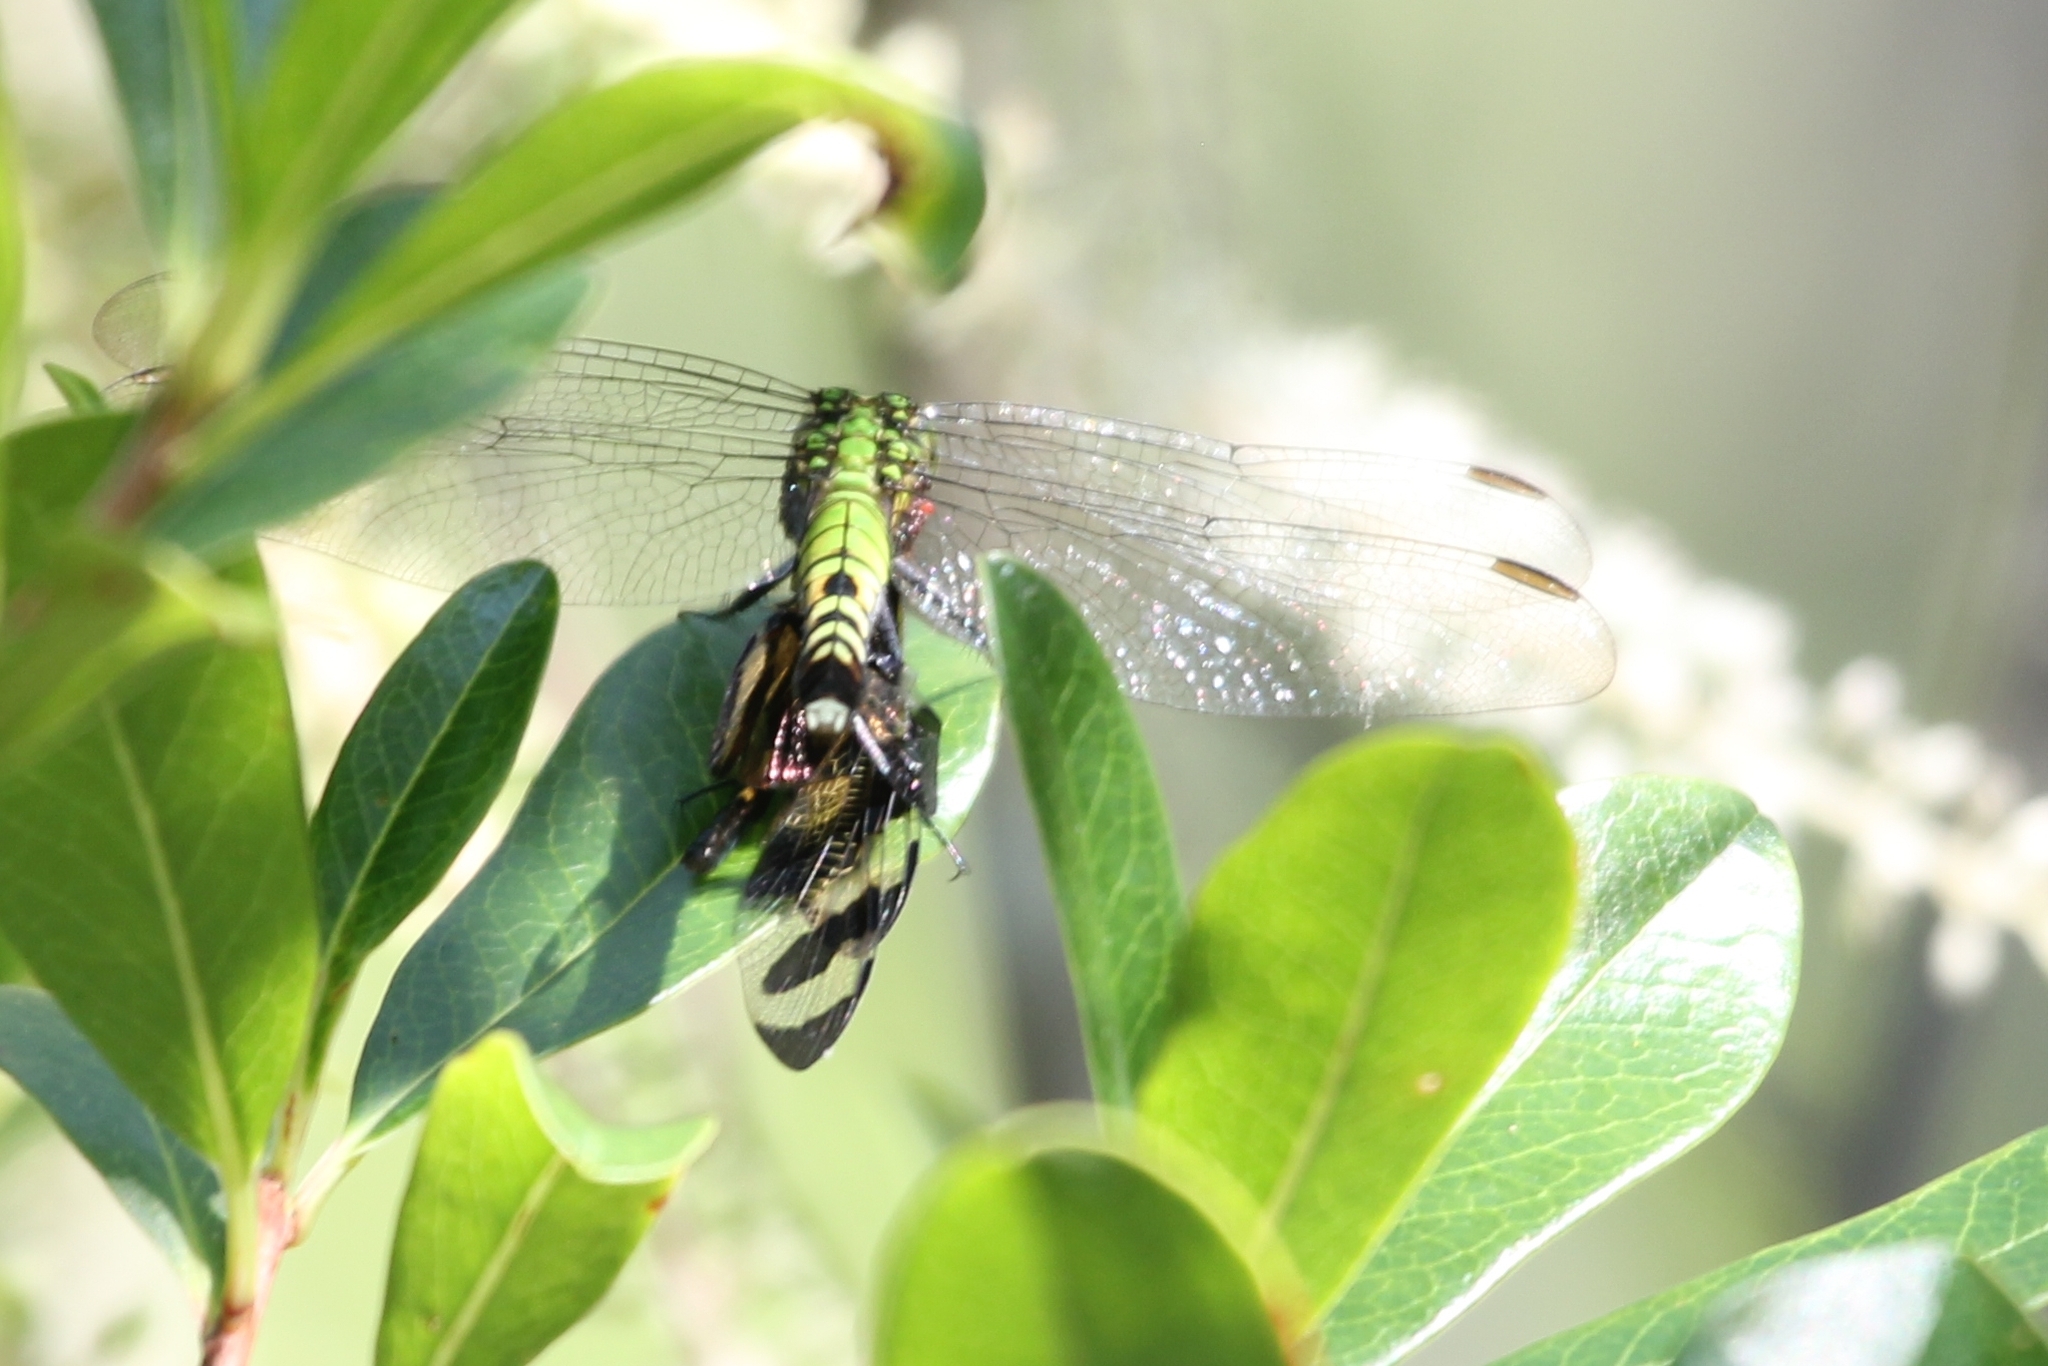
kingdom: Animalia
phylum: Arthropoda
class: Insecta
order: Odonata
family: Libellulidae
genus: Erythemis
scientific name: Erythemis simplicicollis
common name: Eastern pondhawk
